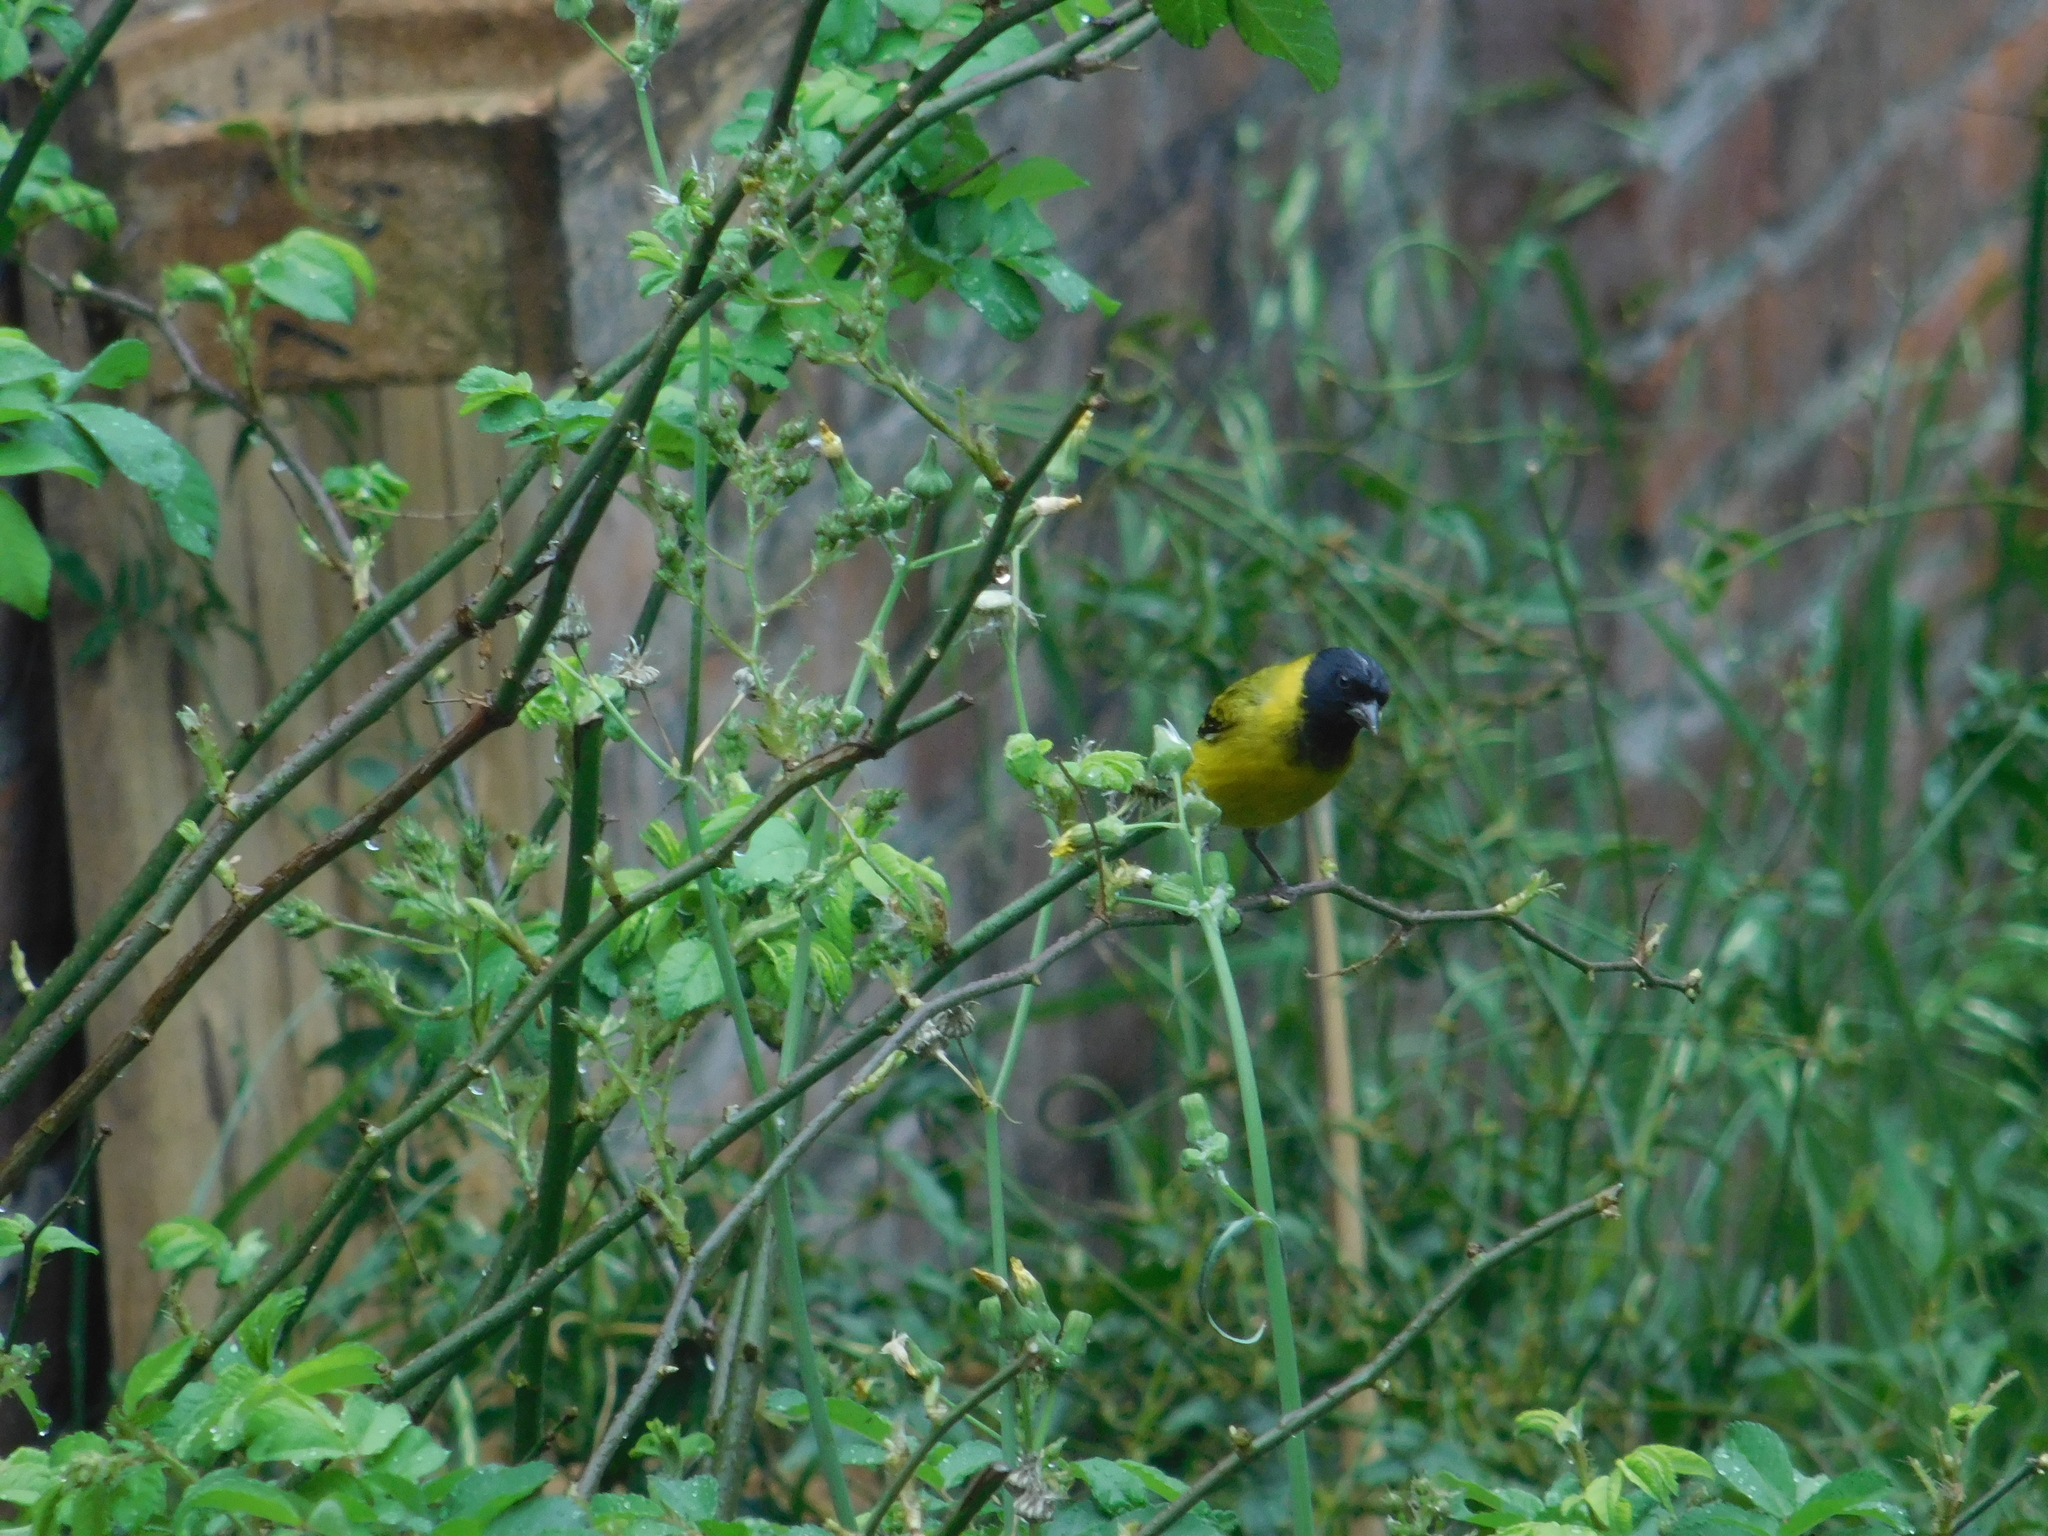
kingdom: Animalia
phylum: Chordata
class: Aves
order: Passeriformes
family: Fringillidae
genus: Spinus
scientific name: Spinus magellanicus
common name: Hooded siskin
